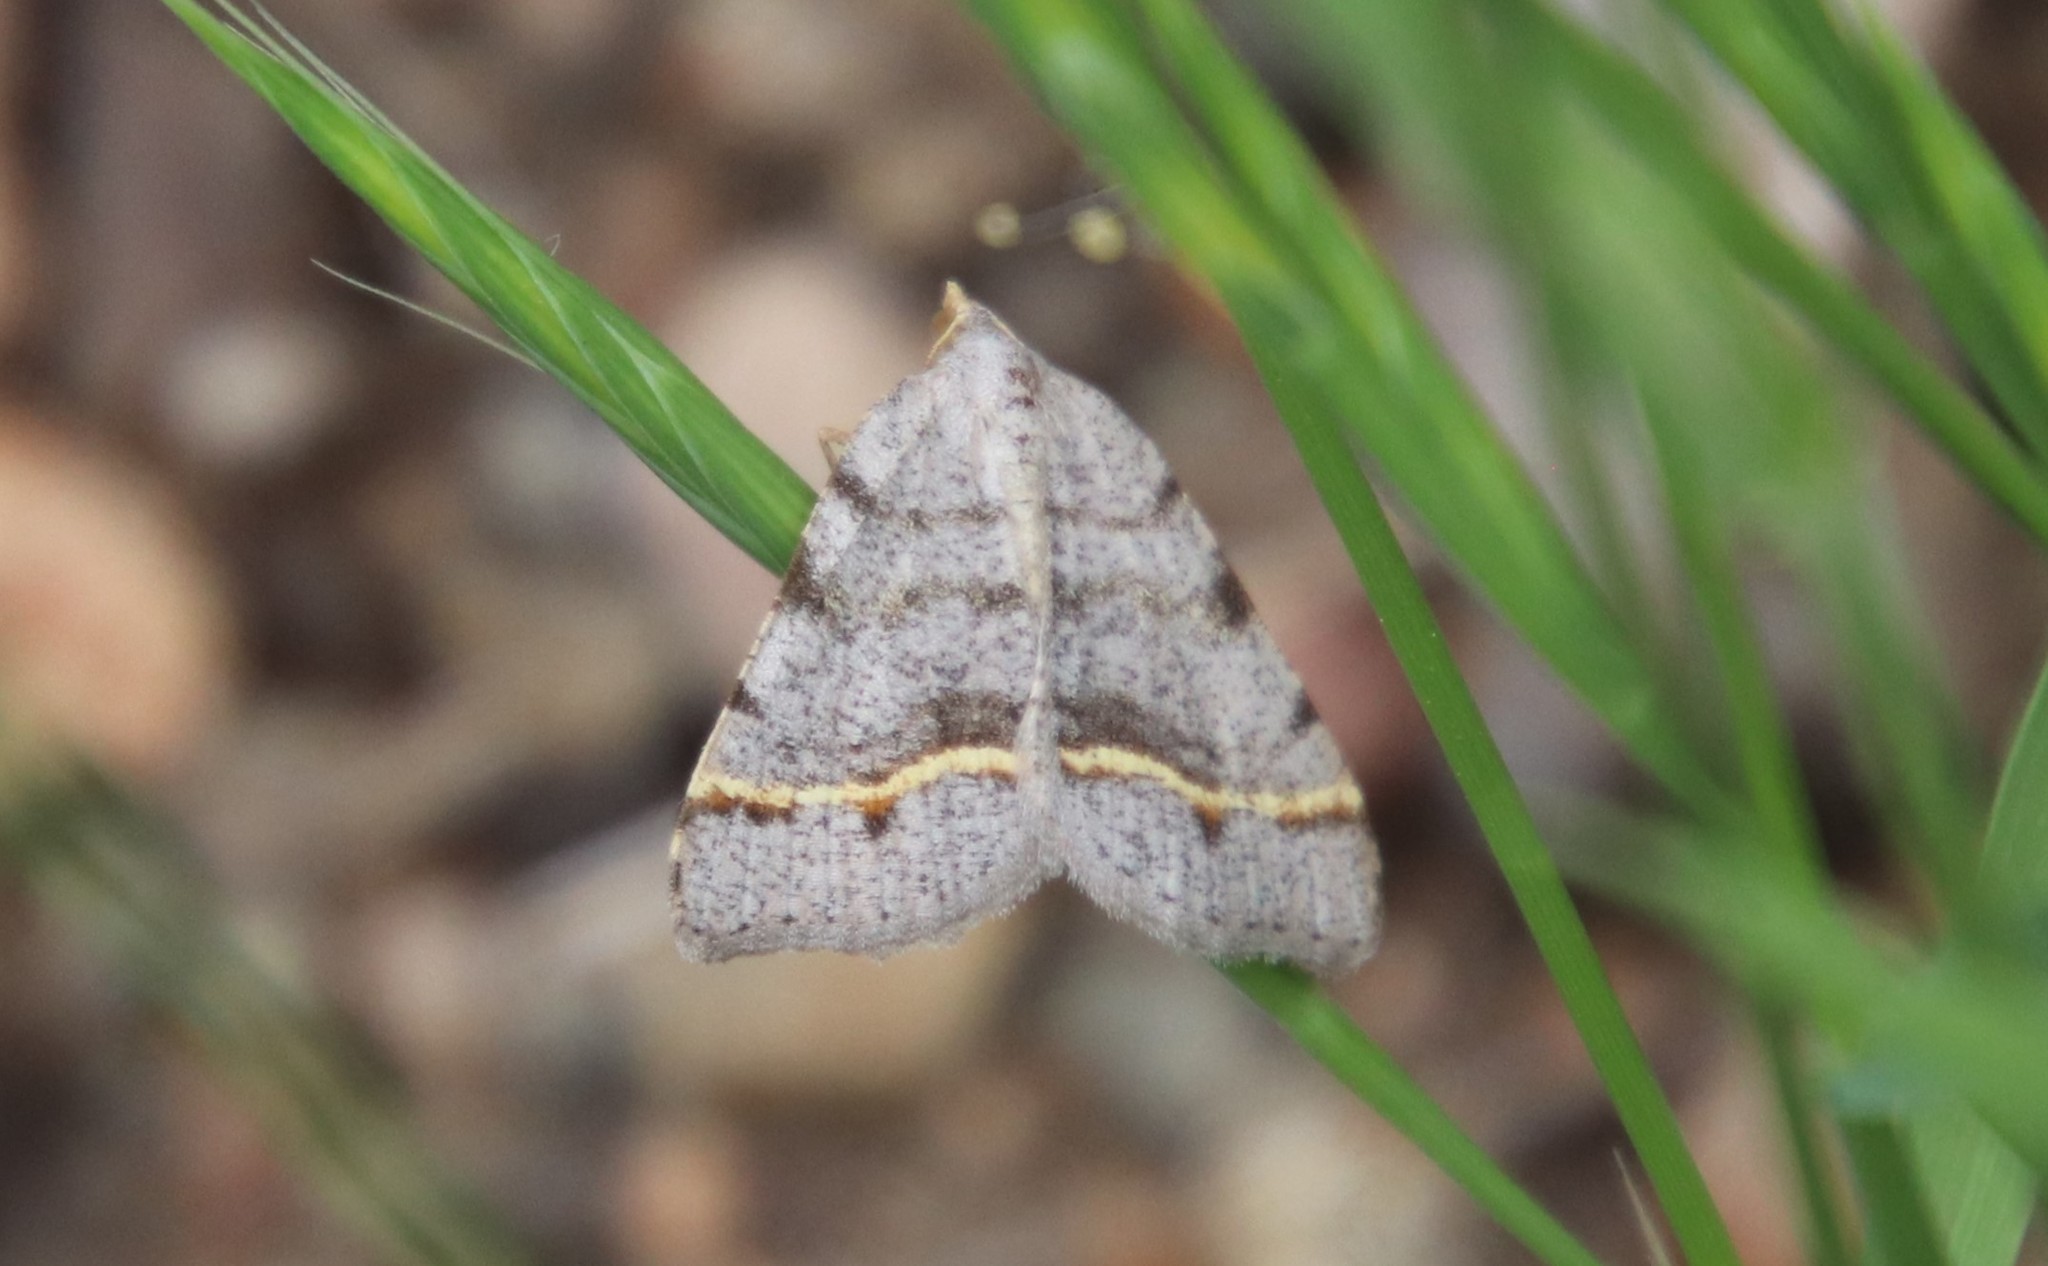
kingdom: Animalia
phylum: Arthropoda
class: Insecta
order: Lepidoptera
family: Geometridae
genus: Macaria
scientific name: Macaria austrinata
